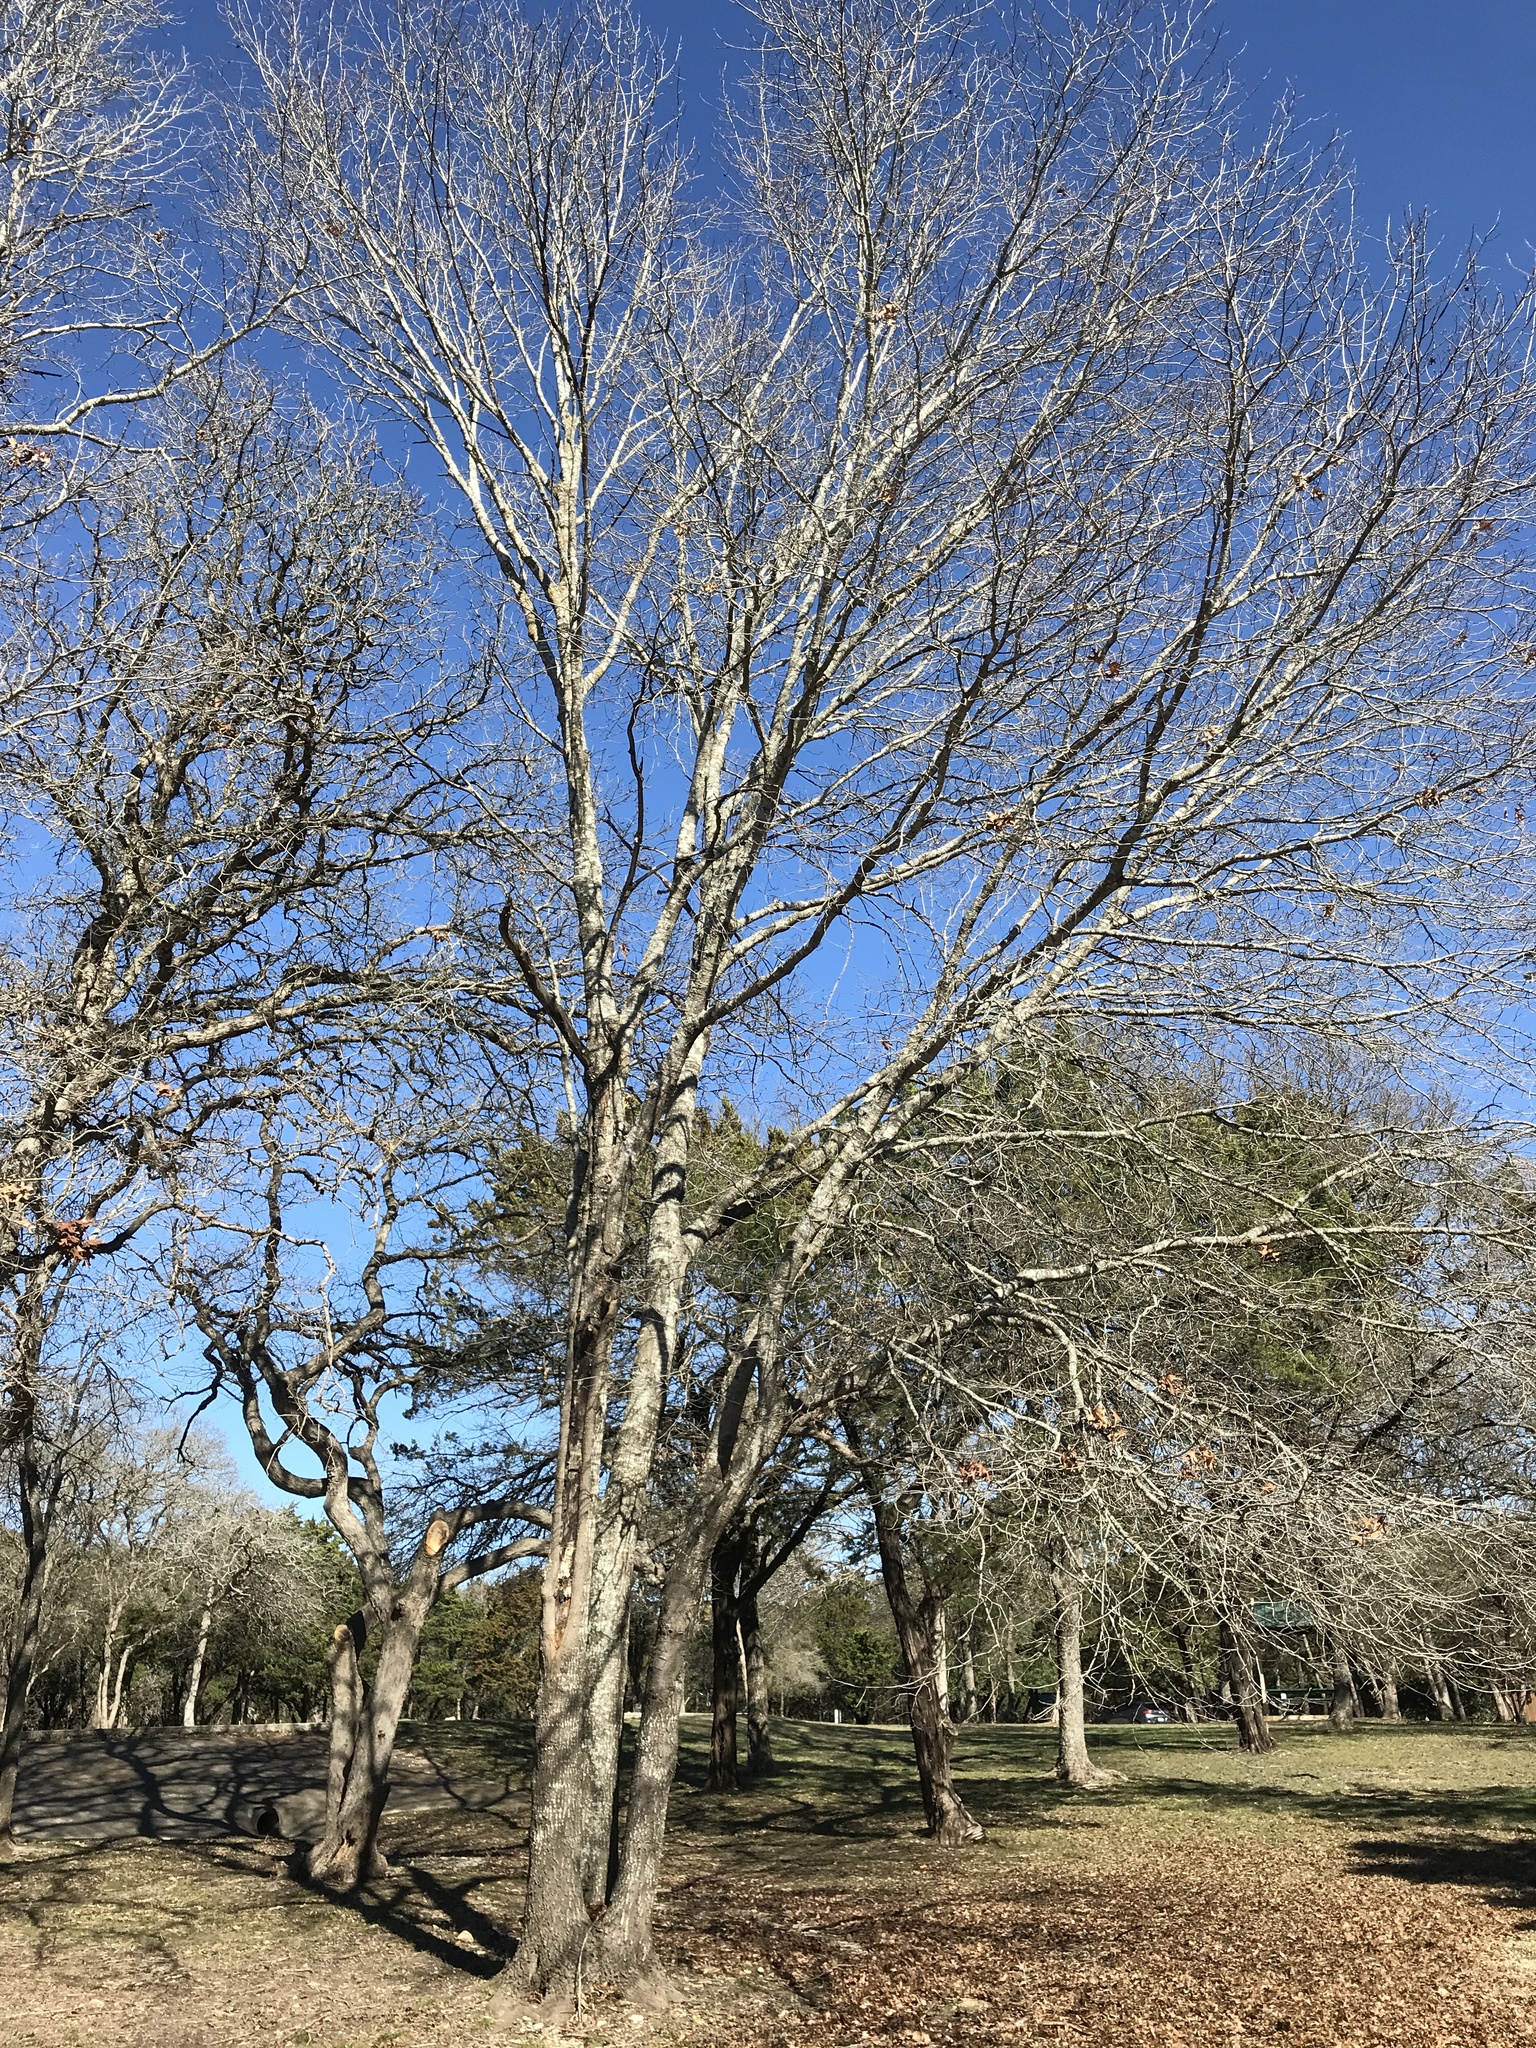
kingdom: Plantae
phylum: Tracheophyta
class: Magnoliopsida
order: Fagales
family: Fagaceae
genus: Quercus
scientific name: Quercus buckleyi
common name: Buckley oak
